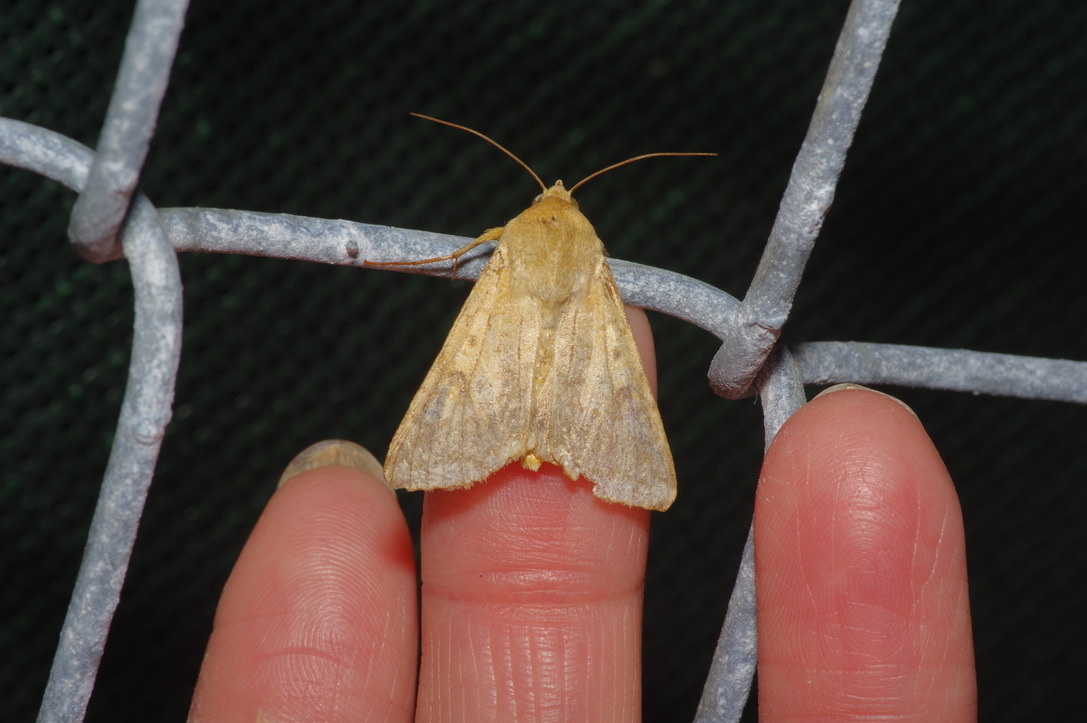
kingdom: Animalia
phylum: Arthropoda
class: Insecta
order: Lepidoptera
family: Noctuidae
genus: Helicoverpa
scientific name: Helicoverpa zea
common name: Bollworm
